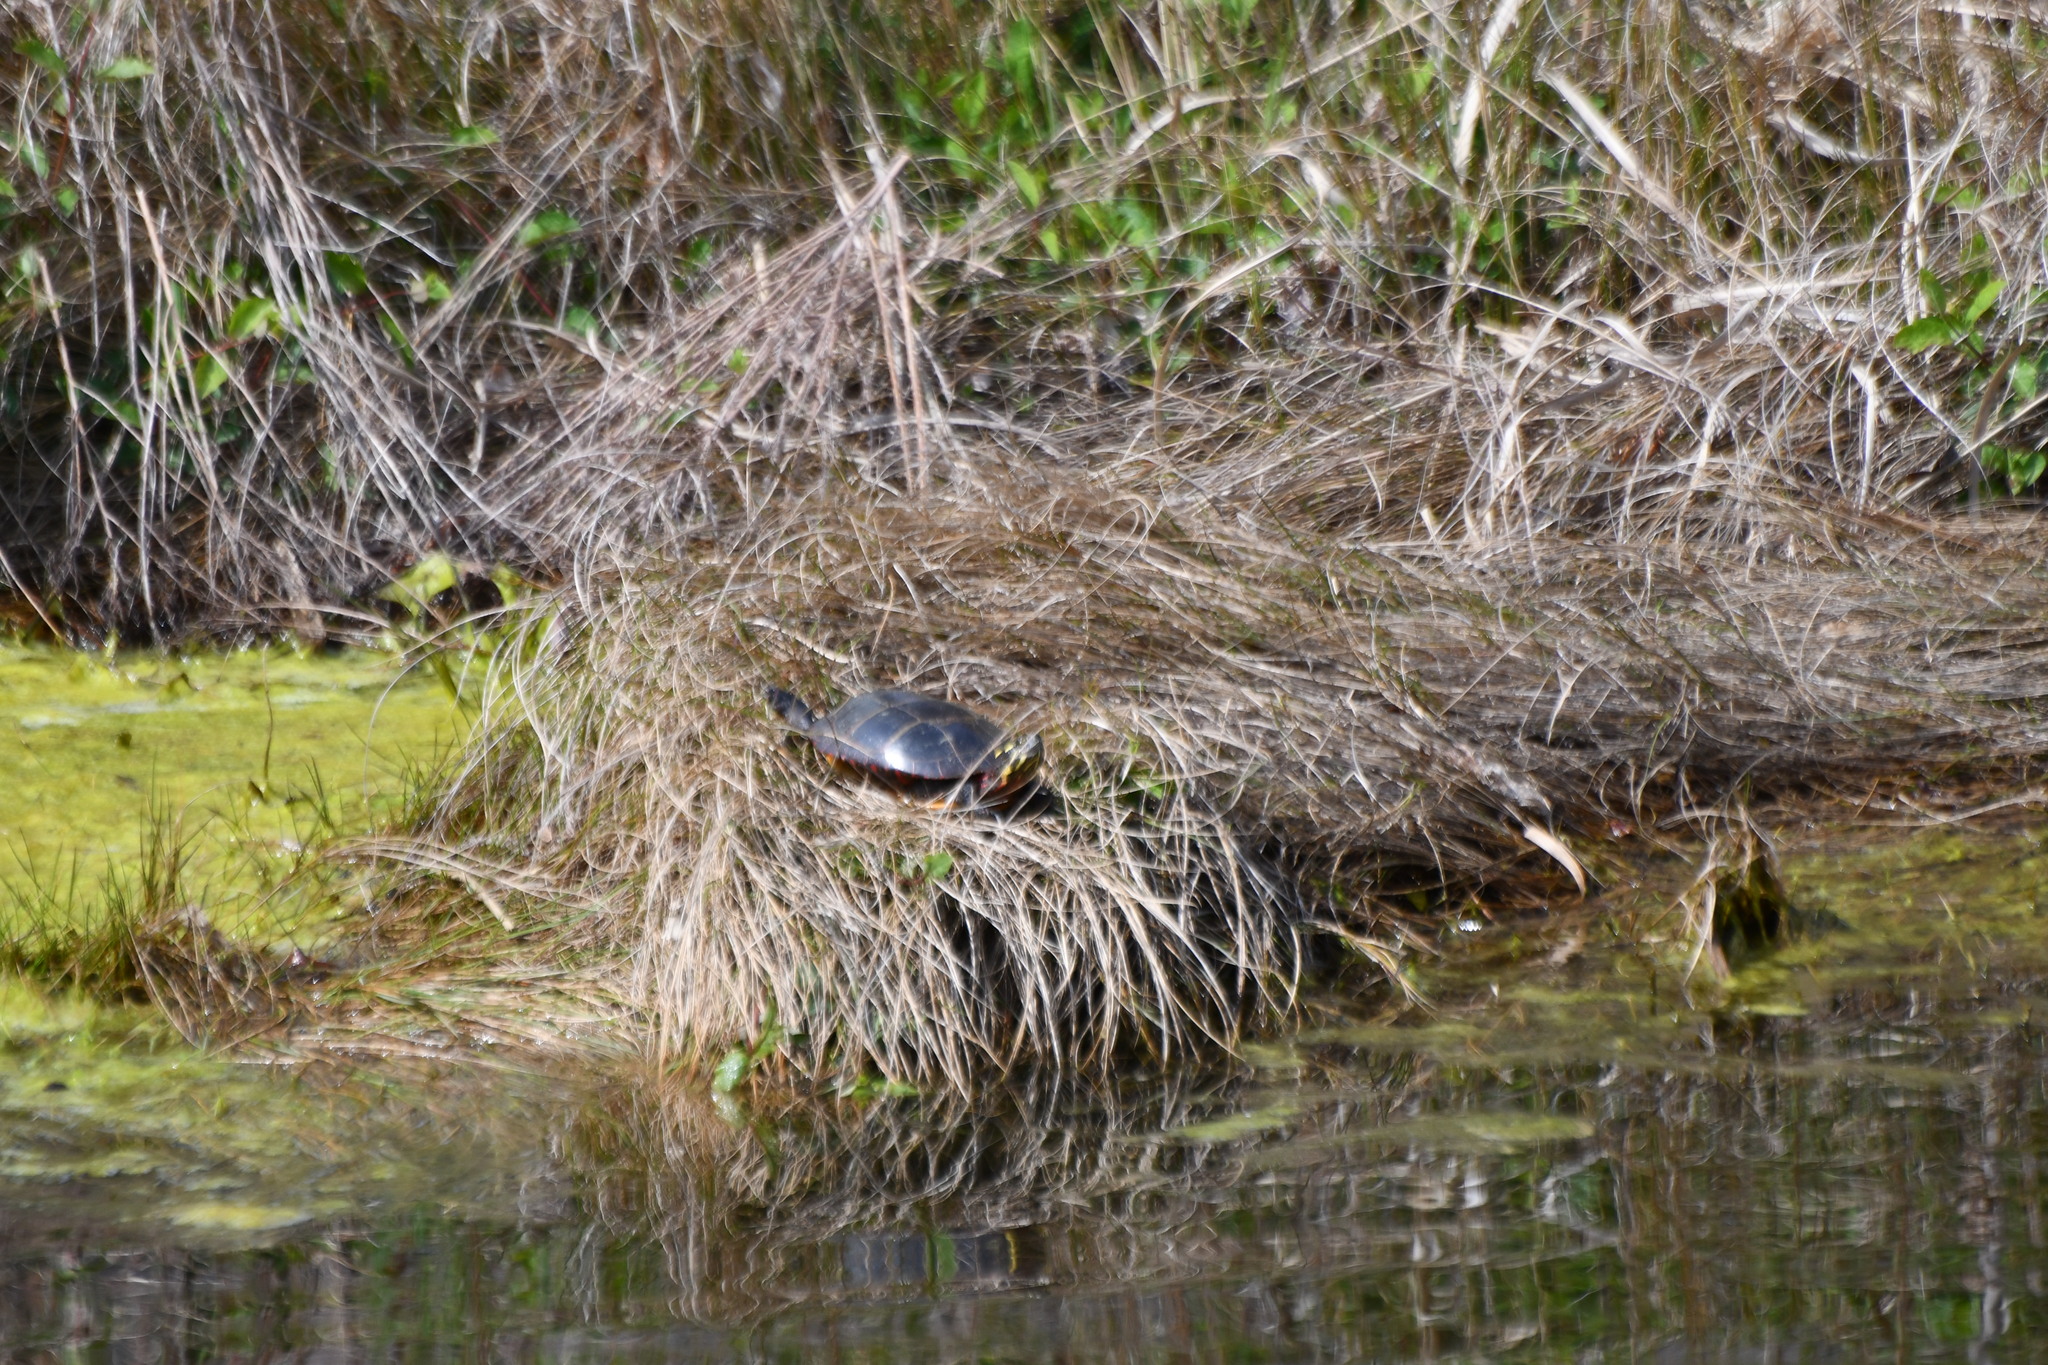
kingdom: Animalia
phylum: Chordata
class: Testudines
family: Emydidae
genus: Chrysemys
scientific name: Chrysemys picta
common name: Painted turtle
